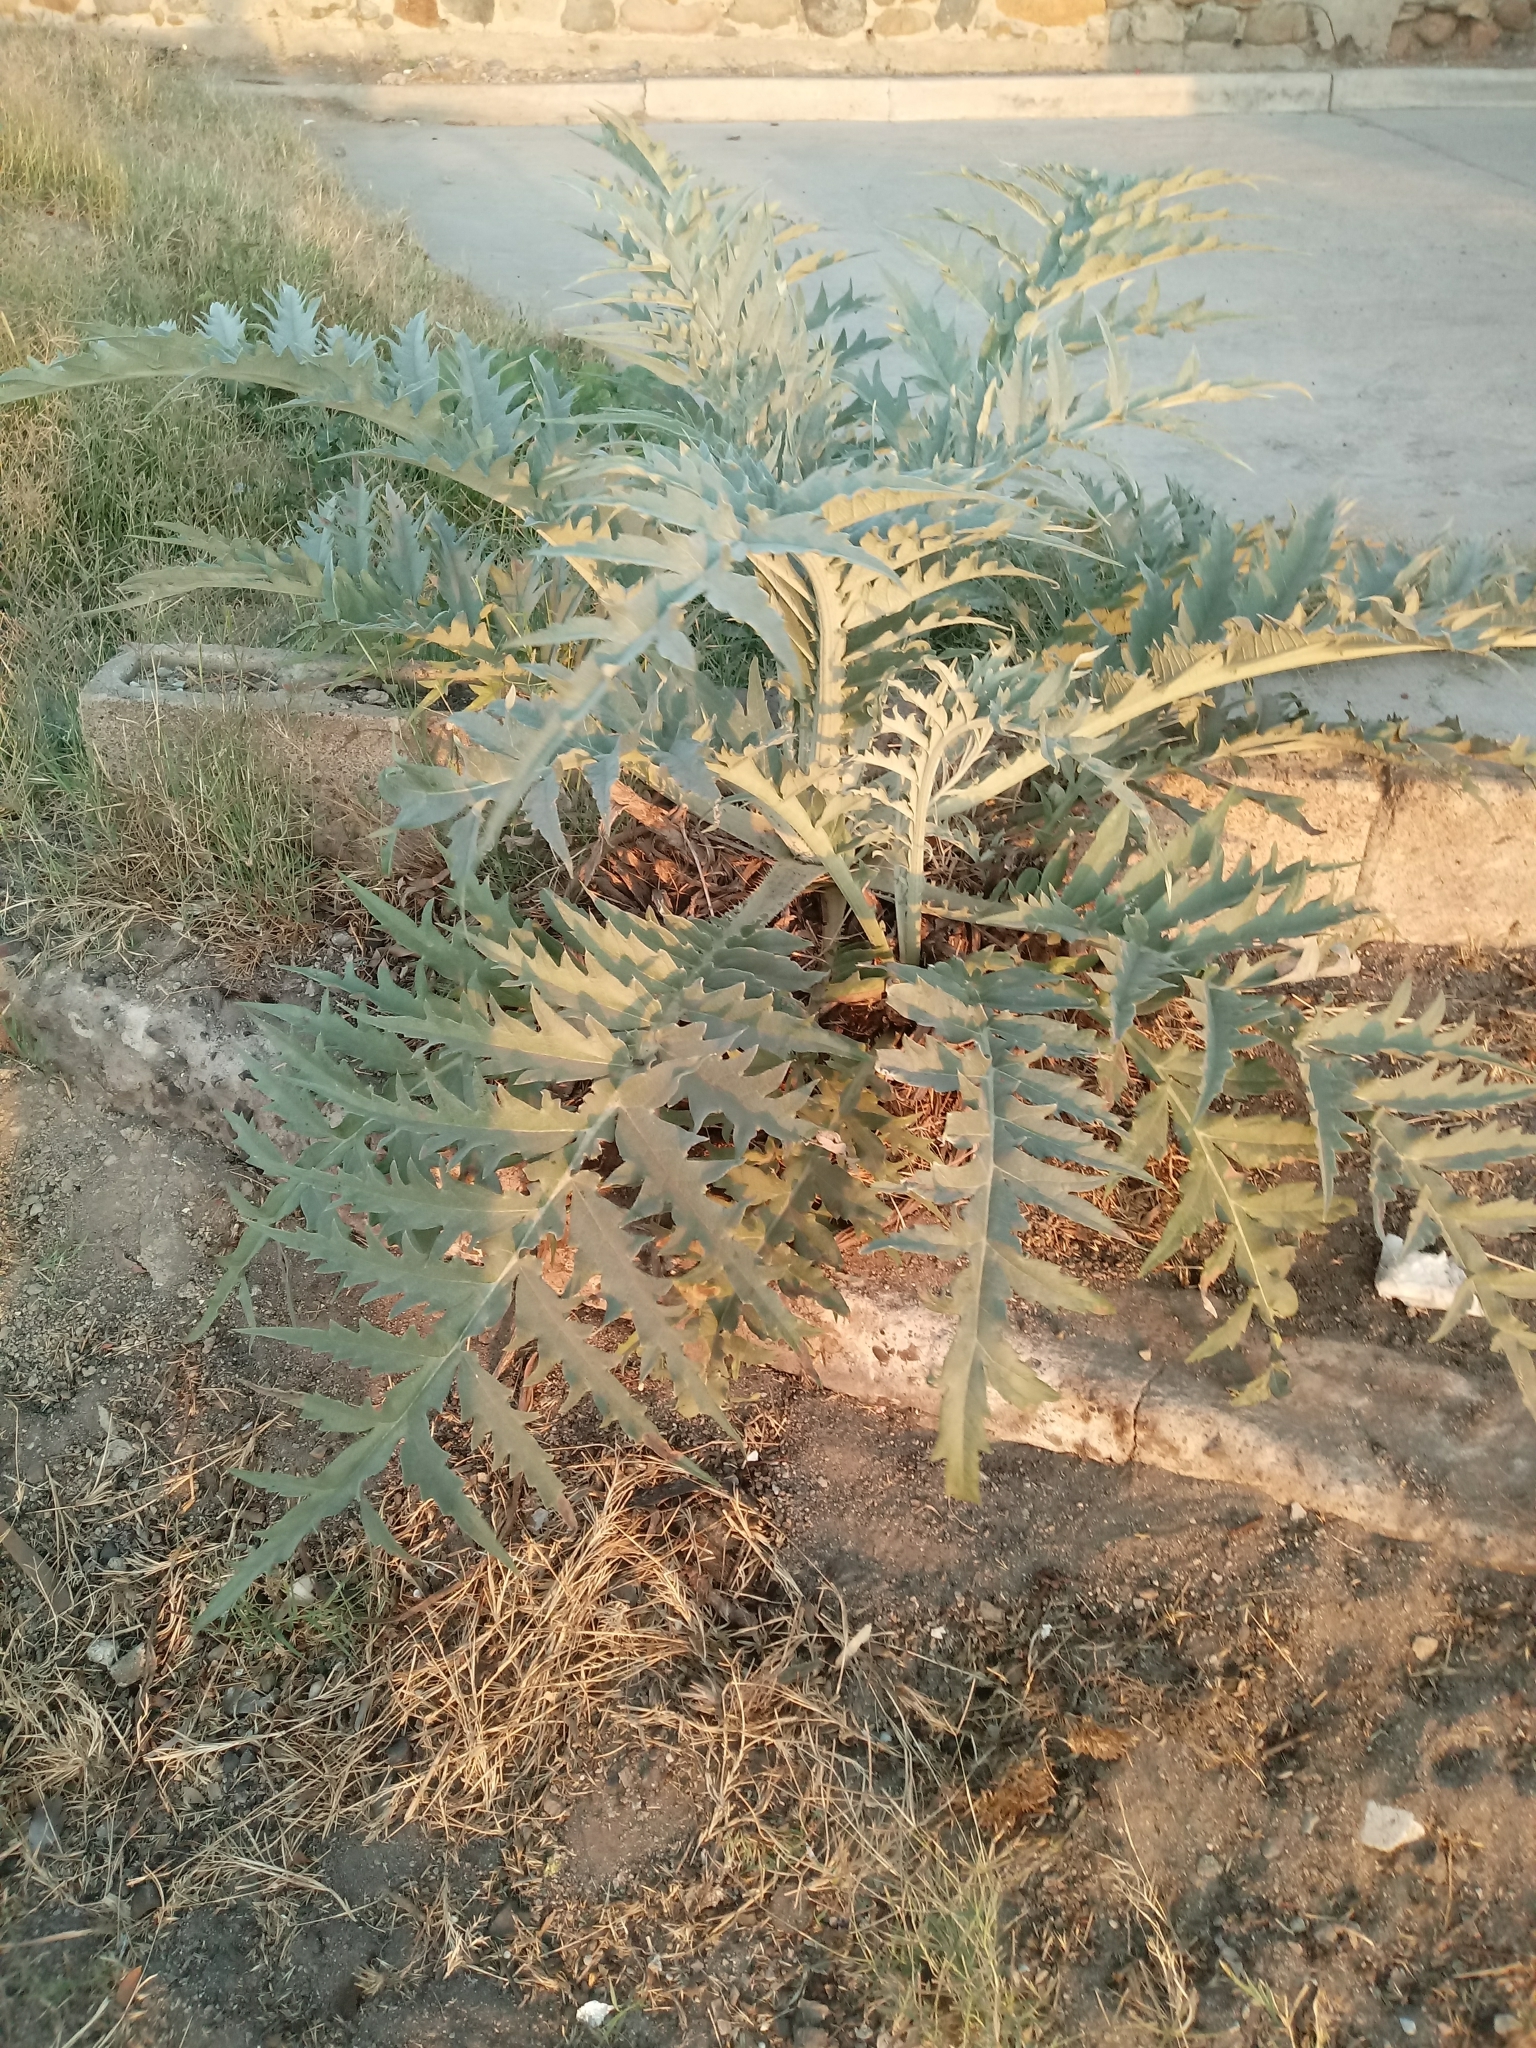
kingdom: Plantae
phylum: Tracheophyta
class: Magnoliopsida
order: Asterales
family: Asteraceae
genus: Cynara
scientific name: Cynara cardunculus
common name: Globe artichoke
